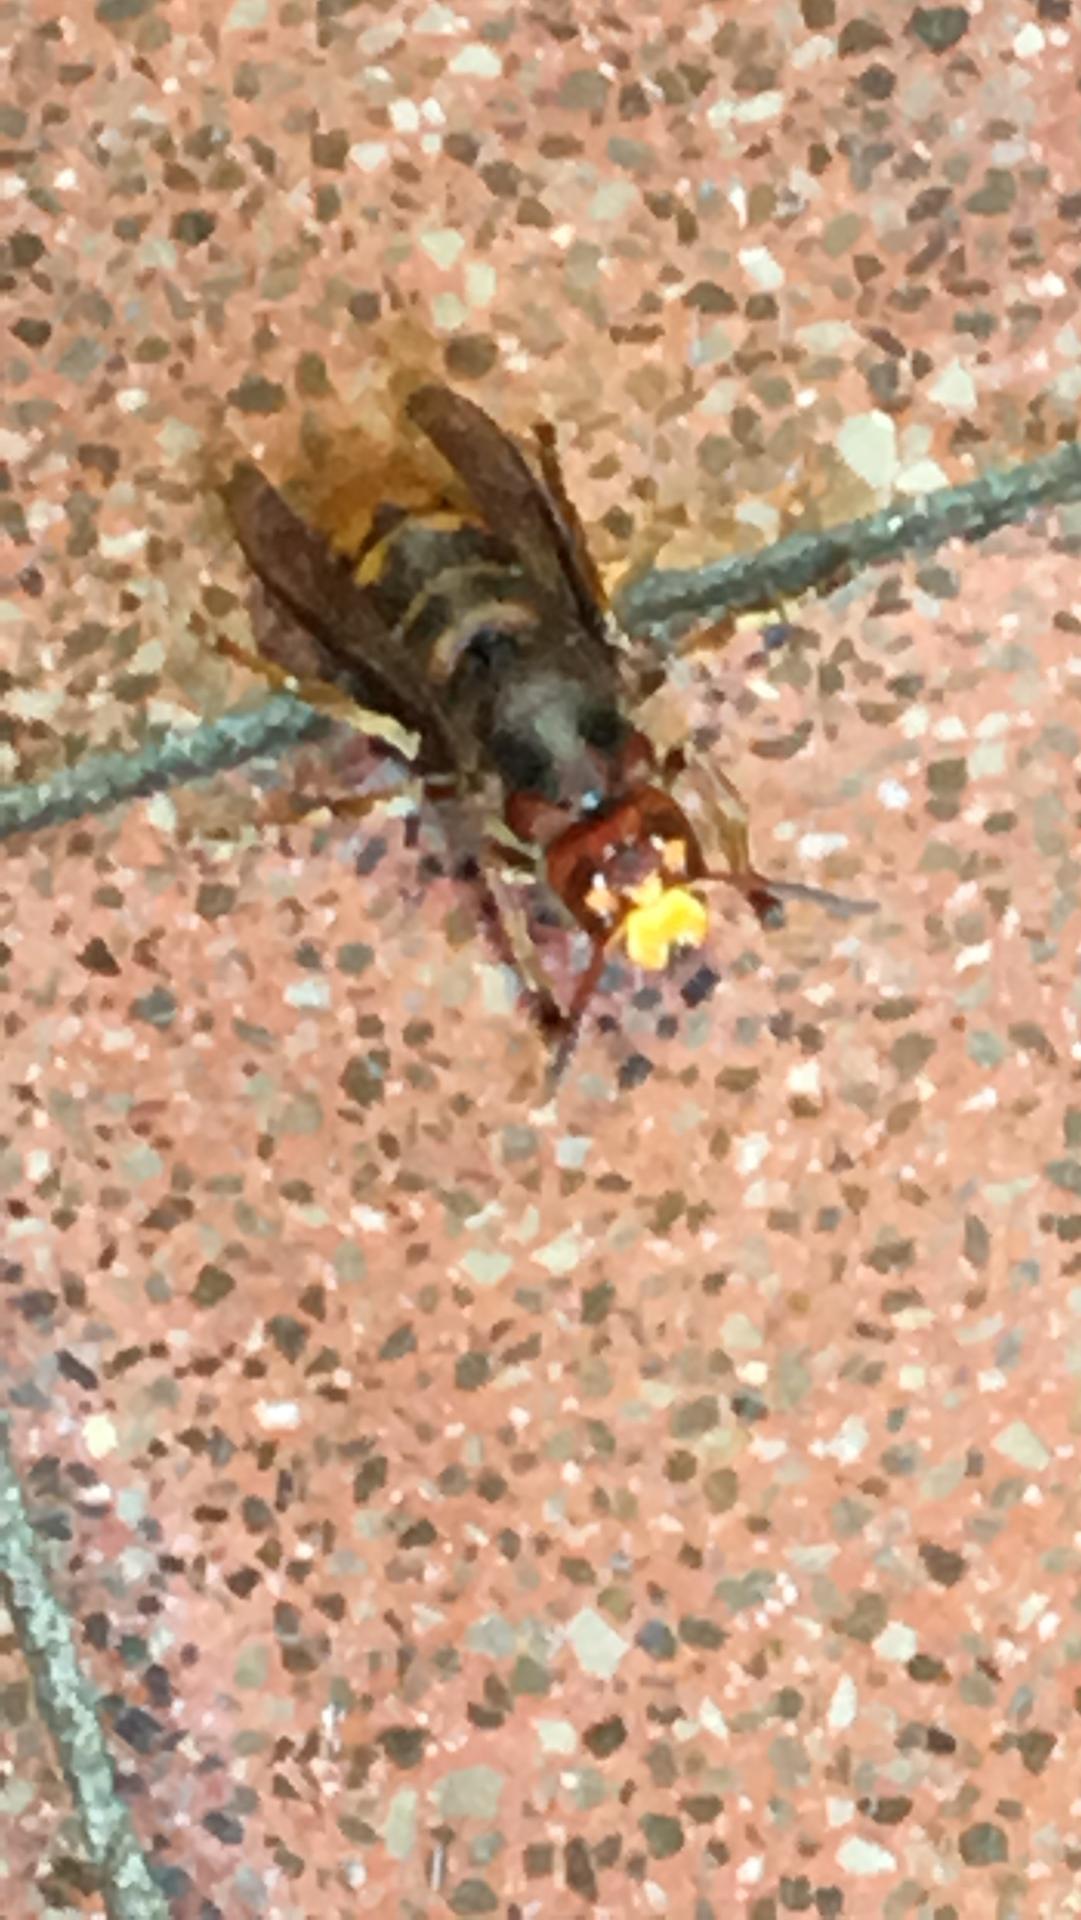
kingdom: Animalia
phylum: Arthropoda
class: Insecta
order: Hymenoptera
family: Vespidae
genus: Vespa
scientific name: Vespa crabro
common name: Hornet
